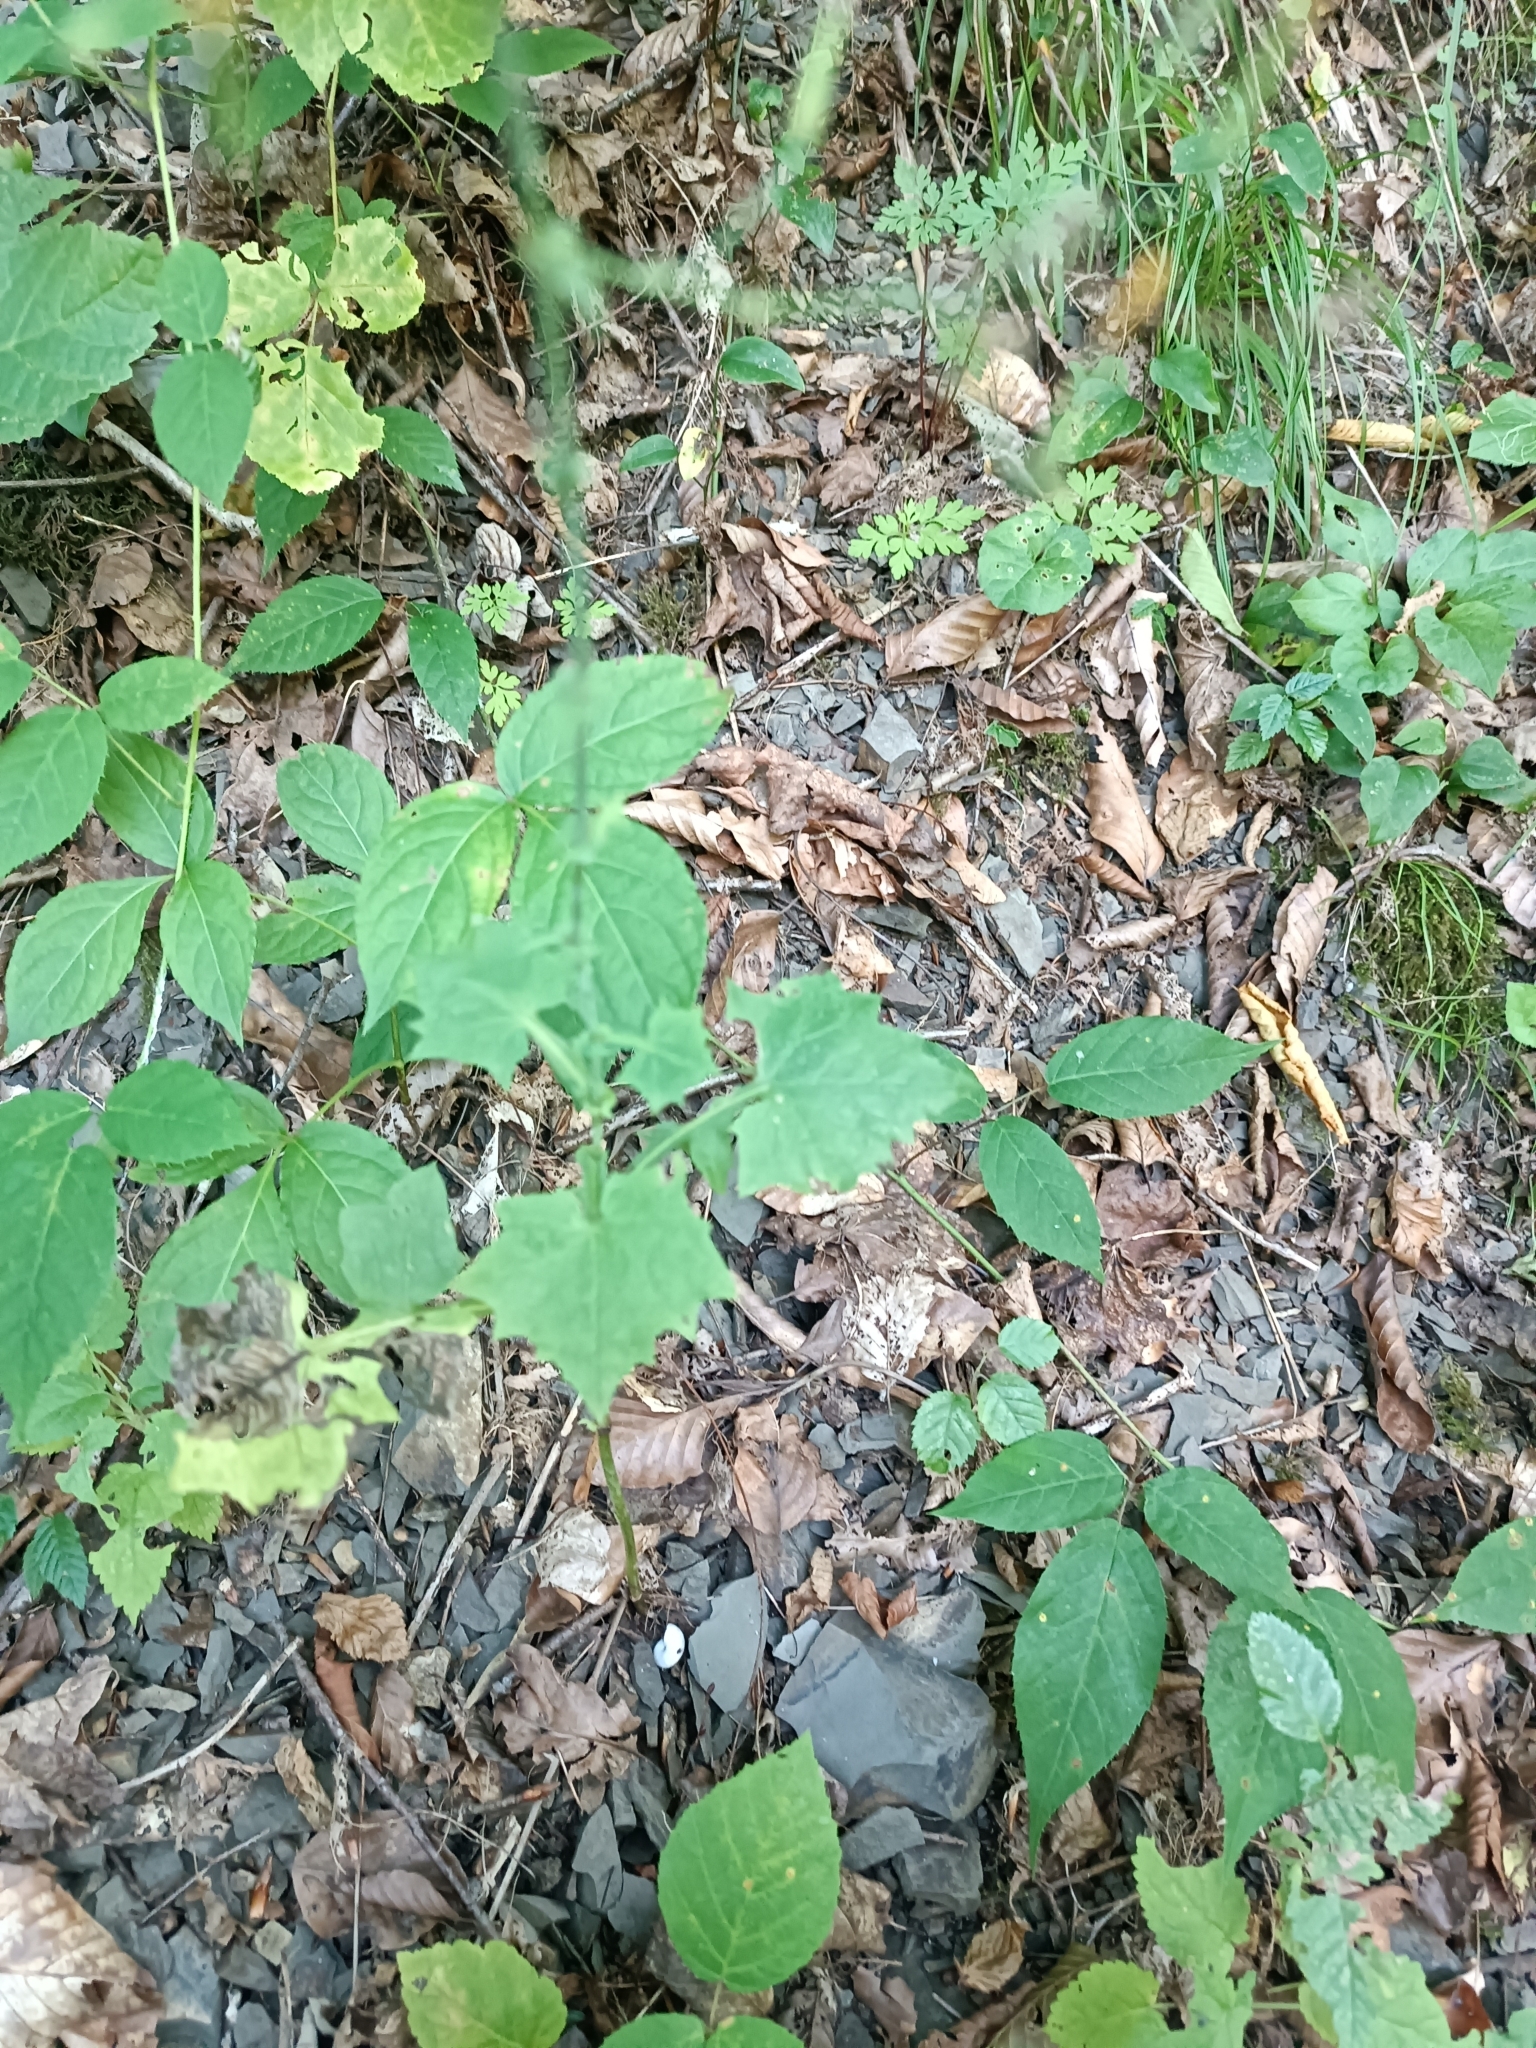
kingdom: Plantae
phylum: Tracheophyta
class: Magnoliopsida
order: Asterales
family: Asteraceae
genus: Mycelis
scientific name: Mycelis muralis
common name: Wall lettuce
